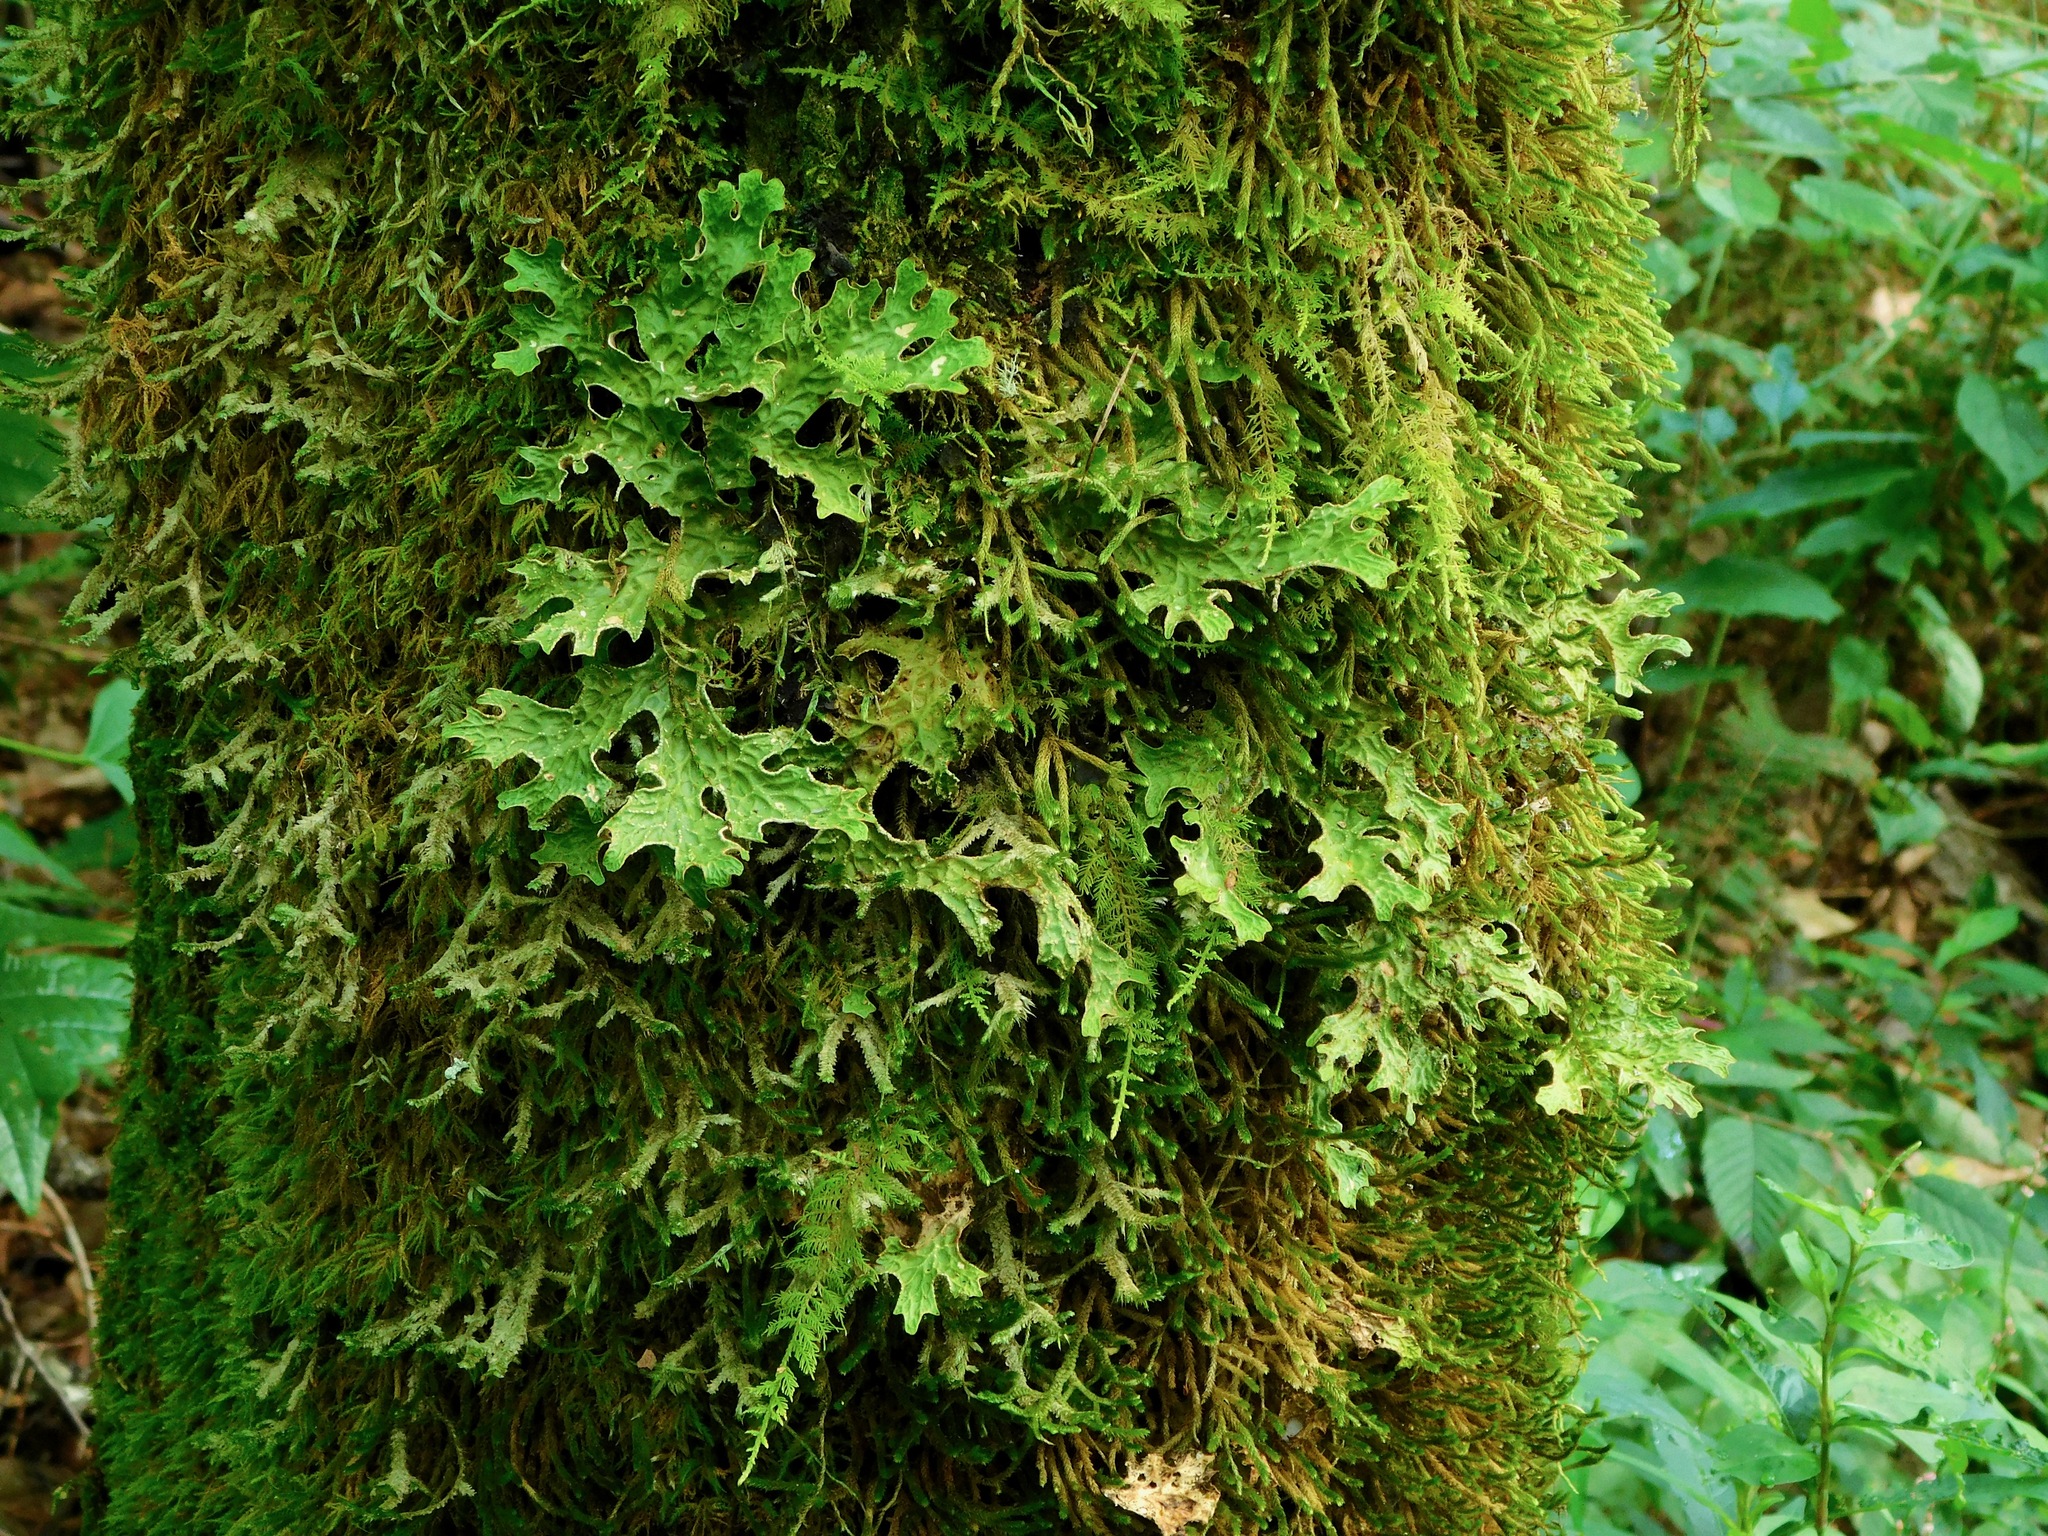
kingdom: Fungi
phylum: Ascomycota
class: Lecanoromycetes
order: Peltigerales
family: Lobariaceae
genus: Lobaria
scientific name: Lobaria pulmonaria
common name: Lungwort
